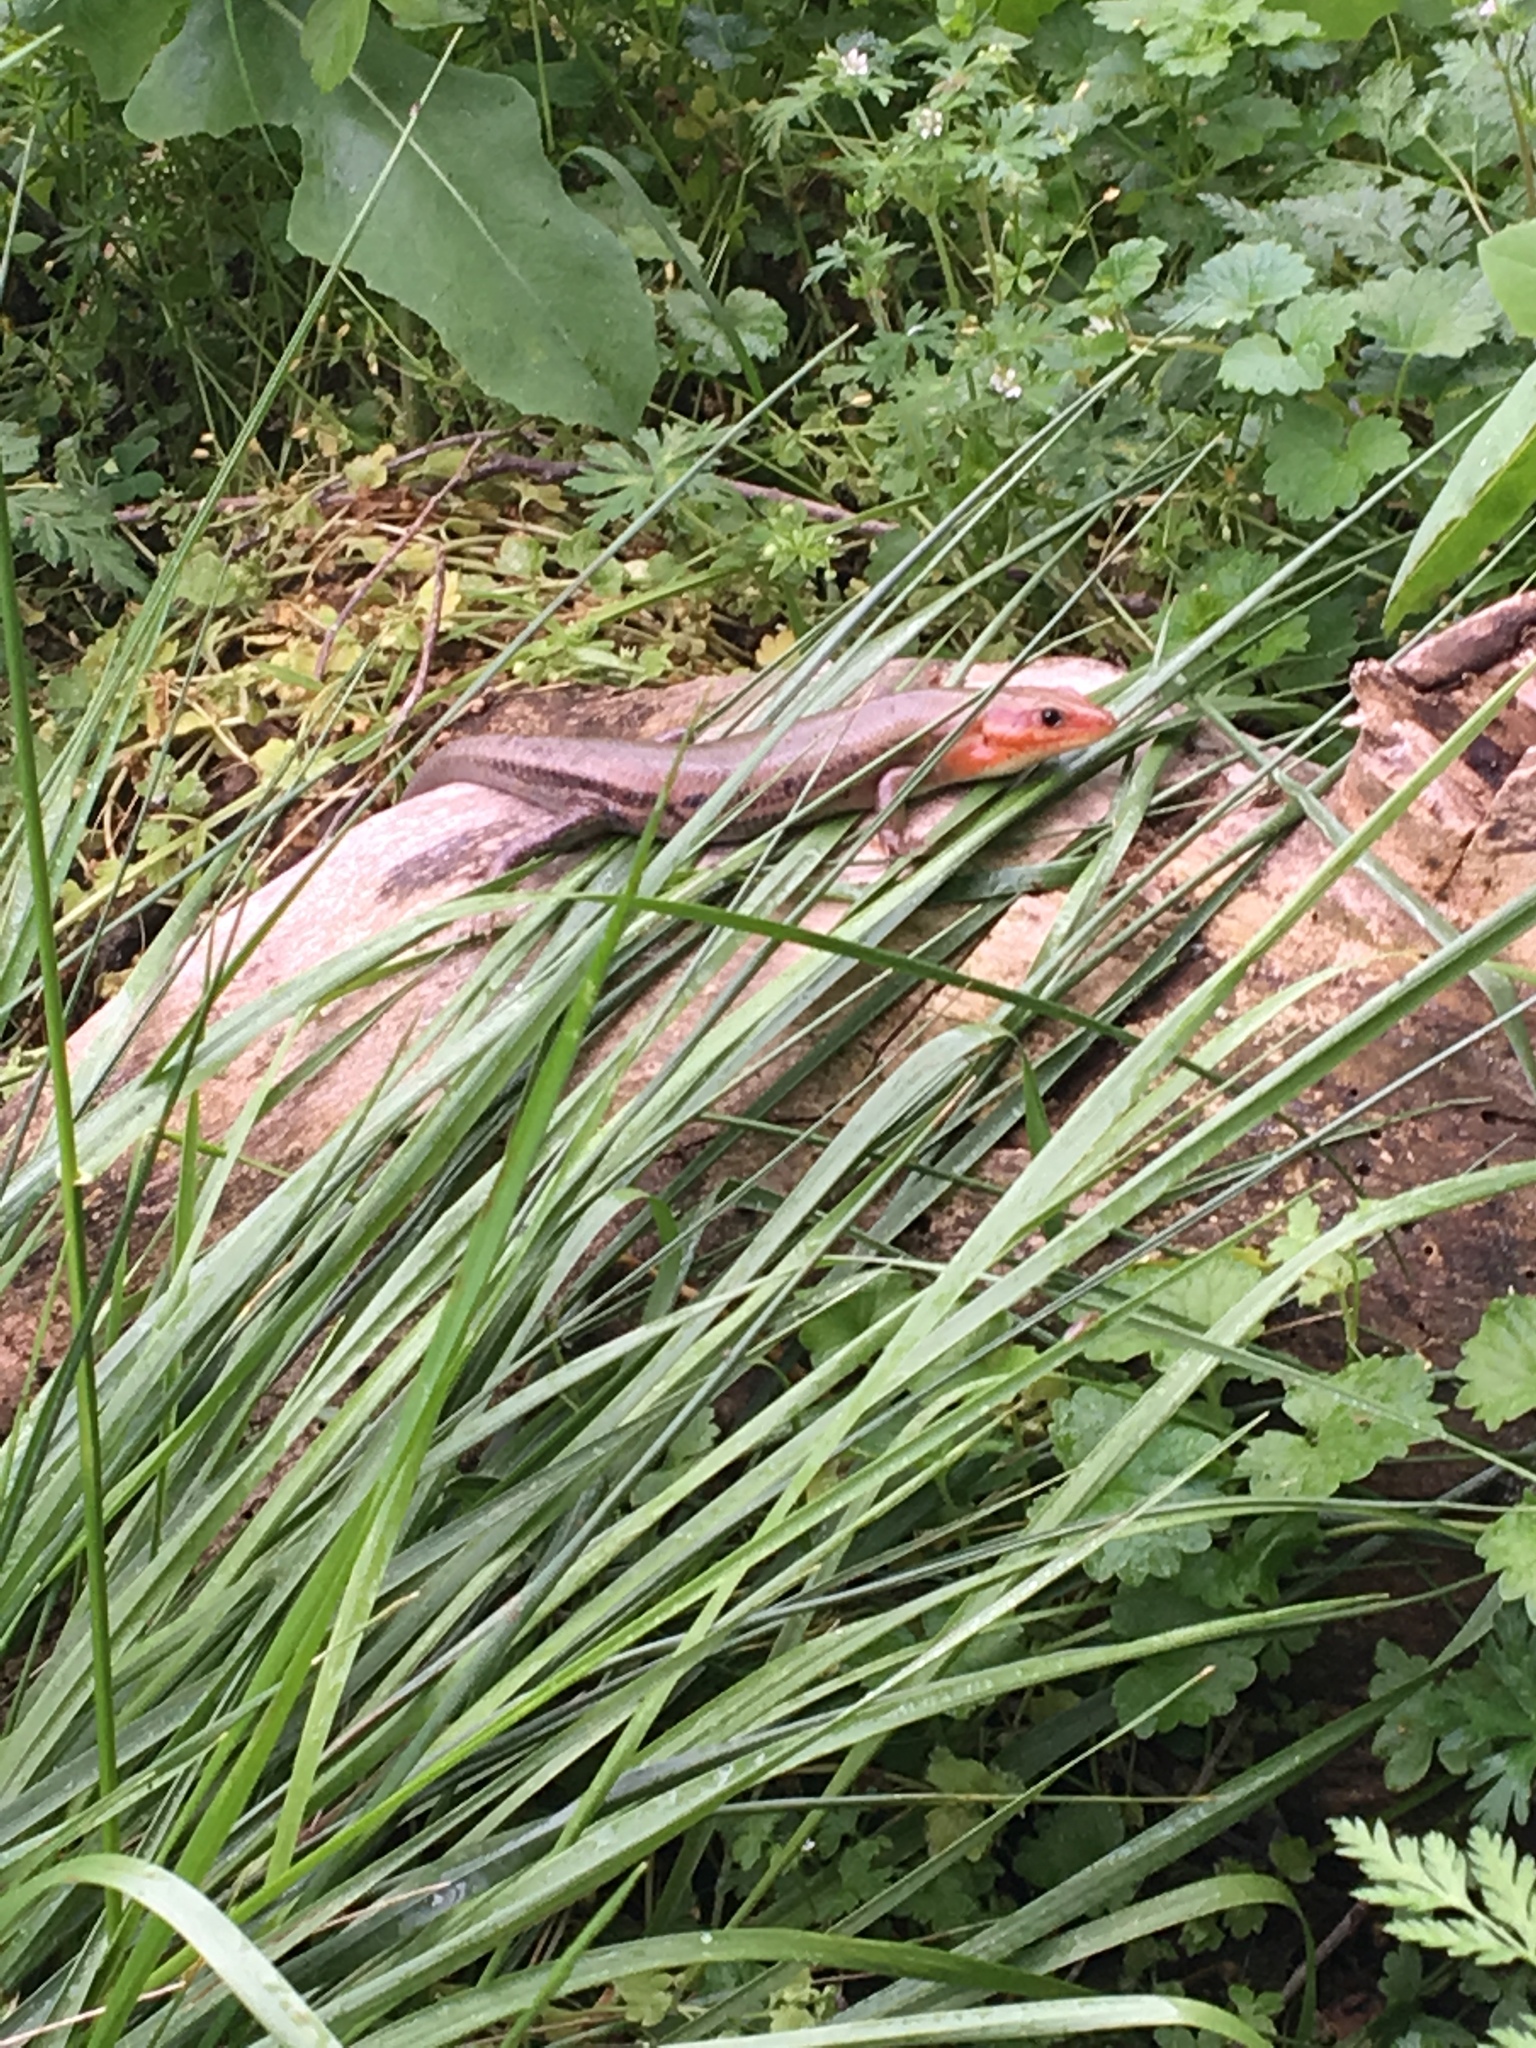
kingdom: Animalia
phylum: Chordata
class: Squamata
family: Scincidae
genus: Plestiodon
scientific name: Plestiodon laticeps
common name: Broadhead skink
